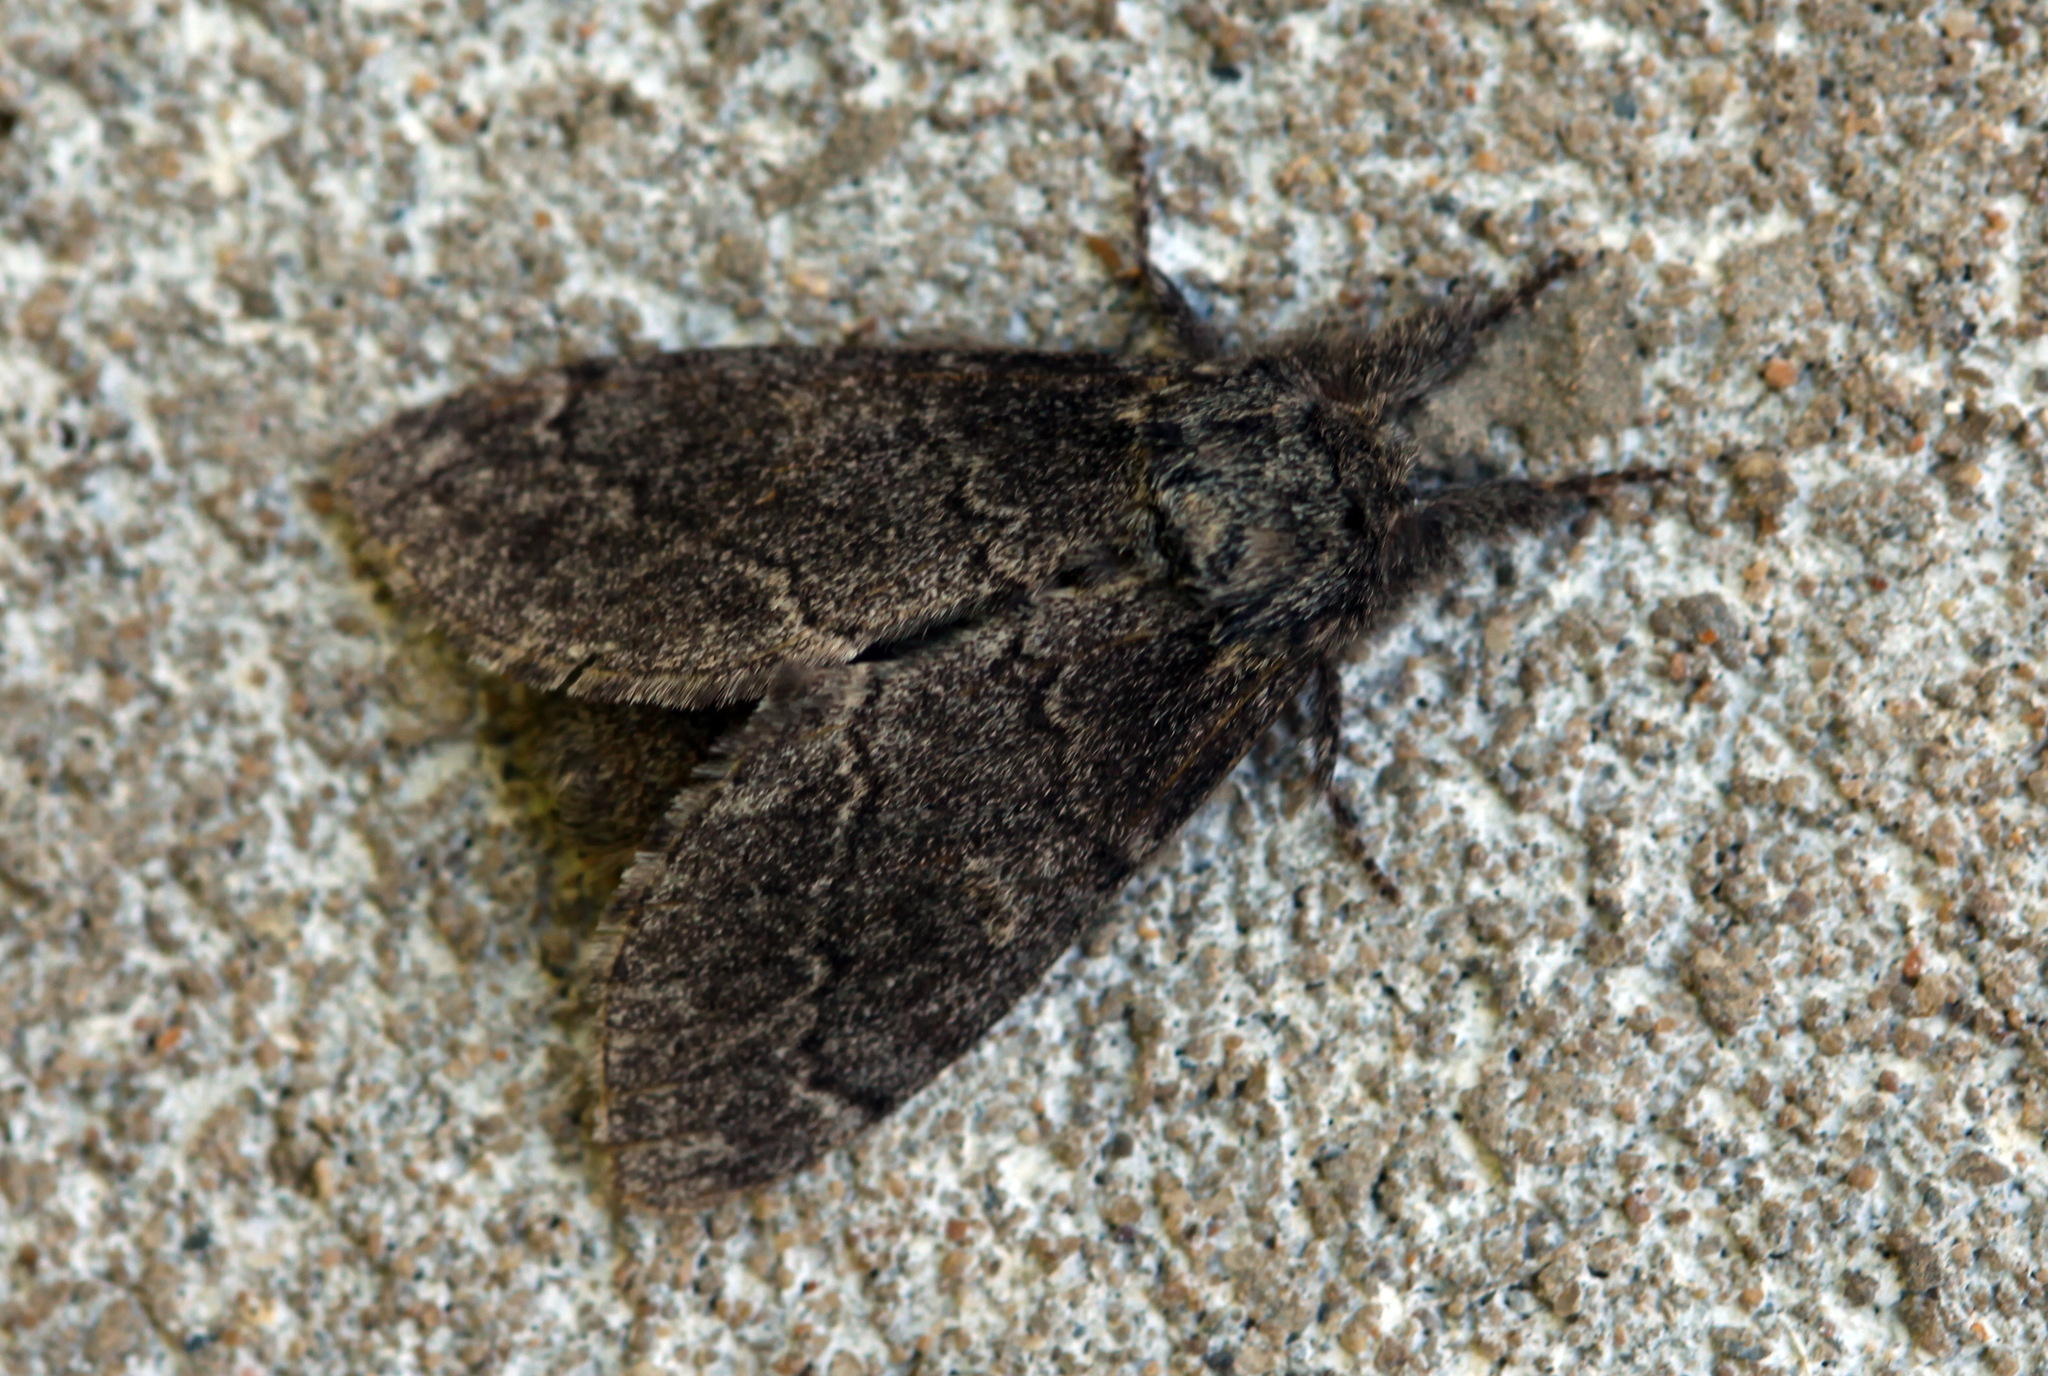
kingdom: Animalia
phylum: Arthropoda
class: Insecta
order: Lepidoptera
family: Notodontidae
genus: Notodonta
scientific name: Notodonta torva
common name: Large dark prominent
